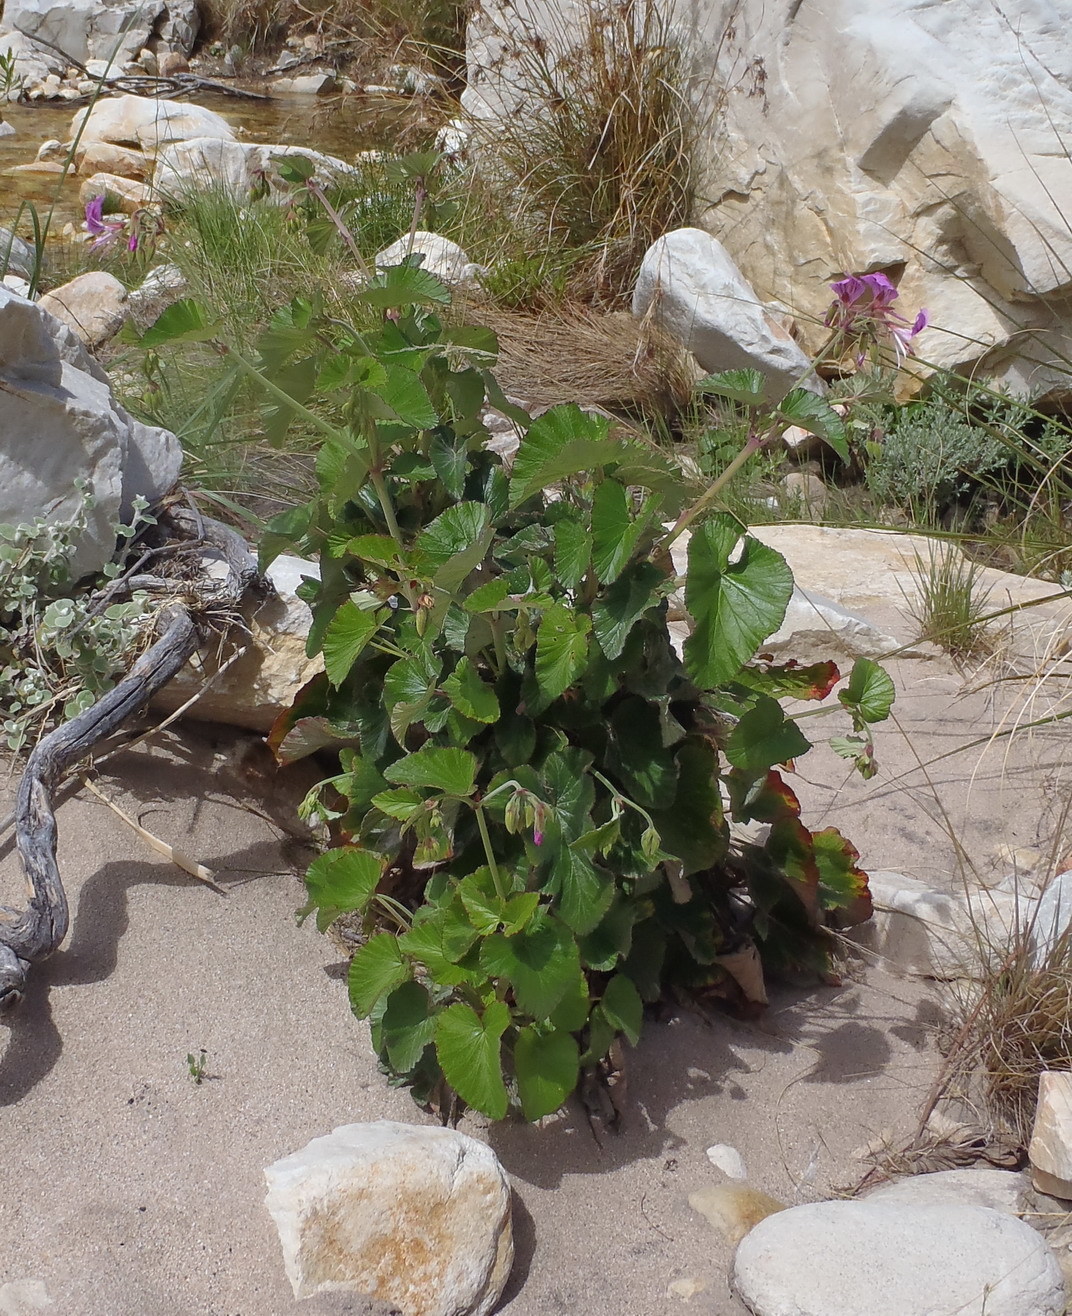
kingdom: Plantae
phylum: Tracheophyta
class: Magnoliopsida
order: Geraniales
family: Geraniaceae
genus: Pelargonium
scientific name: Pelargonium cordifolium
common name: Heart-leaf pelargonium
